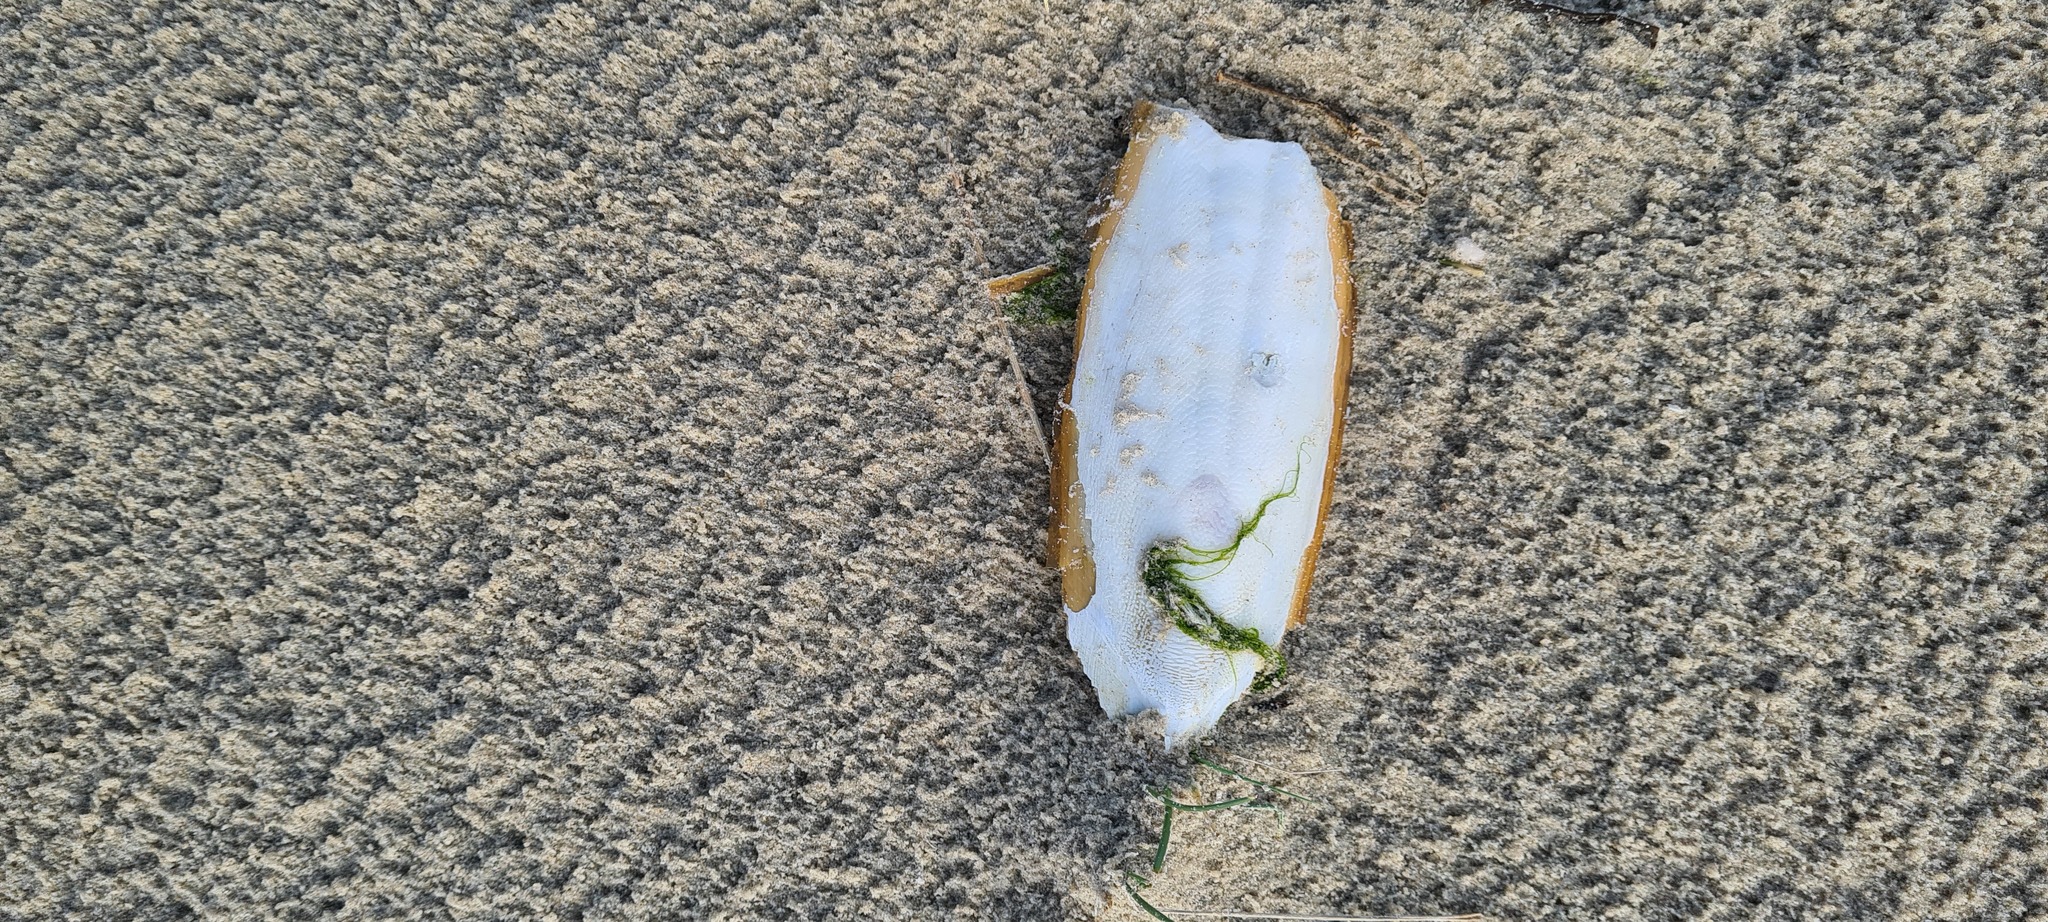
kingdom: Animalia
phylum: Mollusca
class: Cephalopoda
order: Sepiida
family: Sepiidae
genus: Sepia
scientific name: Sepia officinalis
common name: Common cuttlefish
